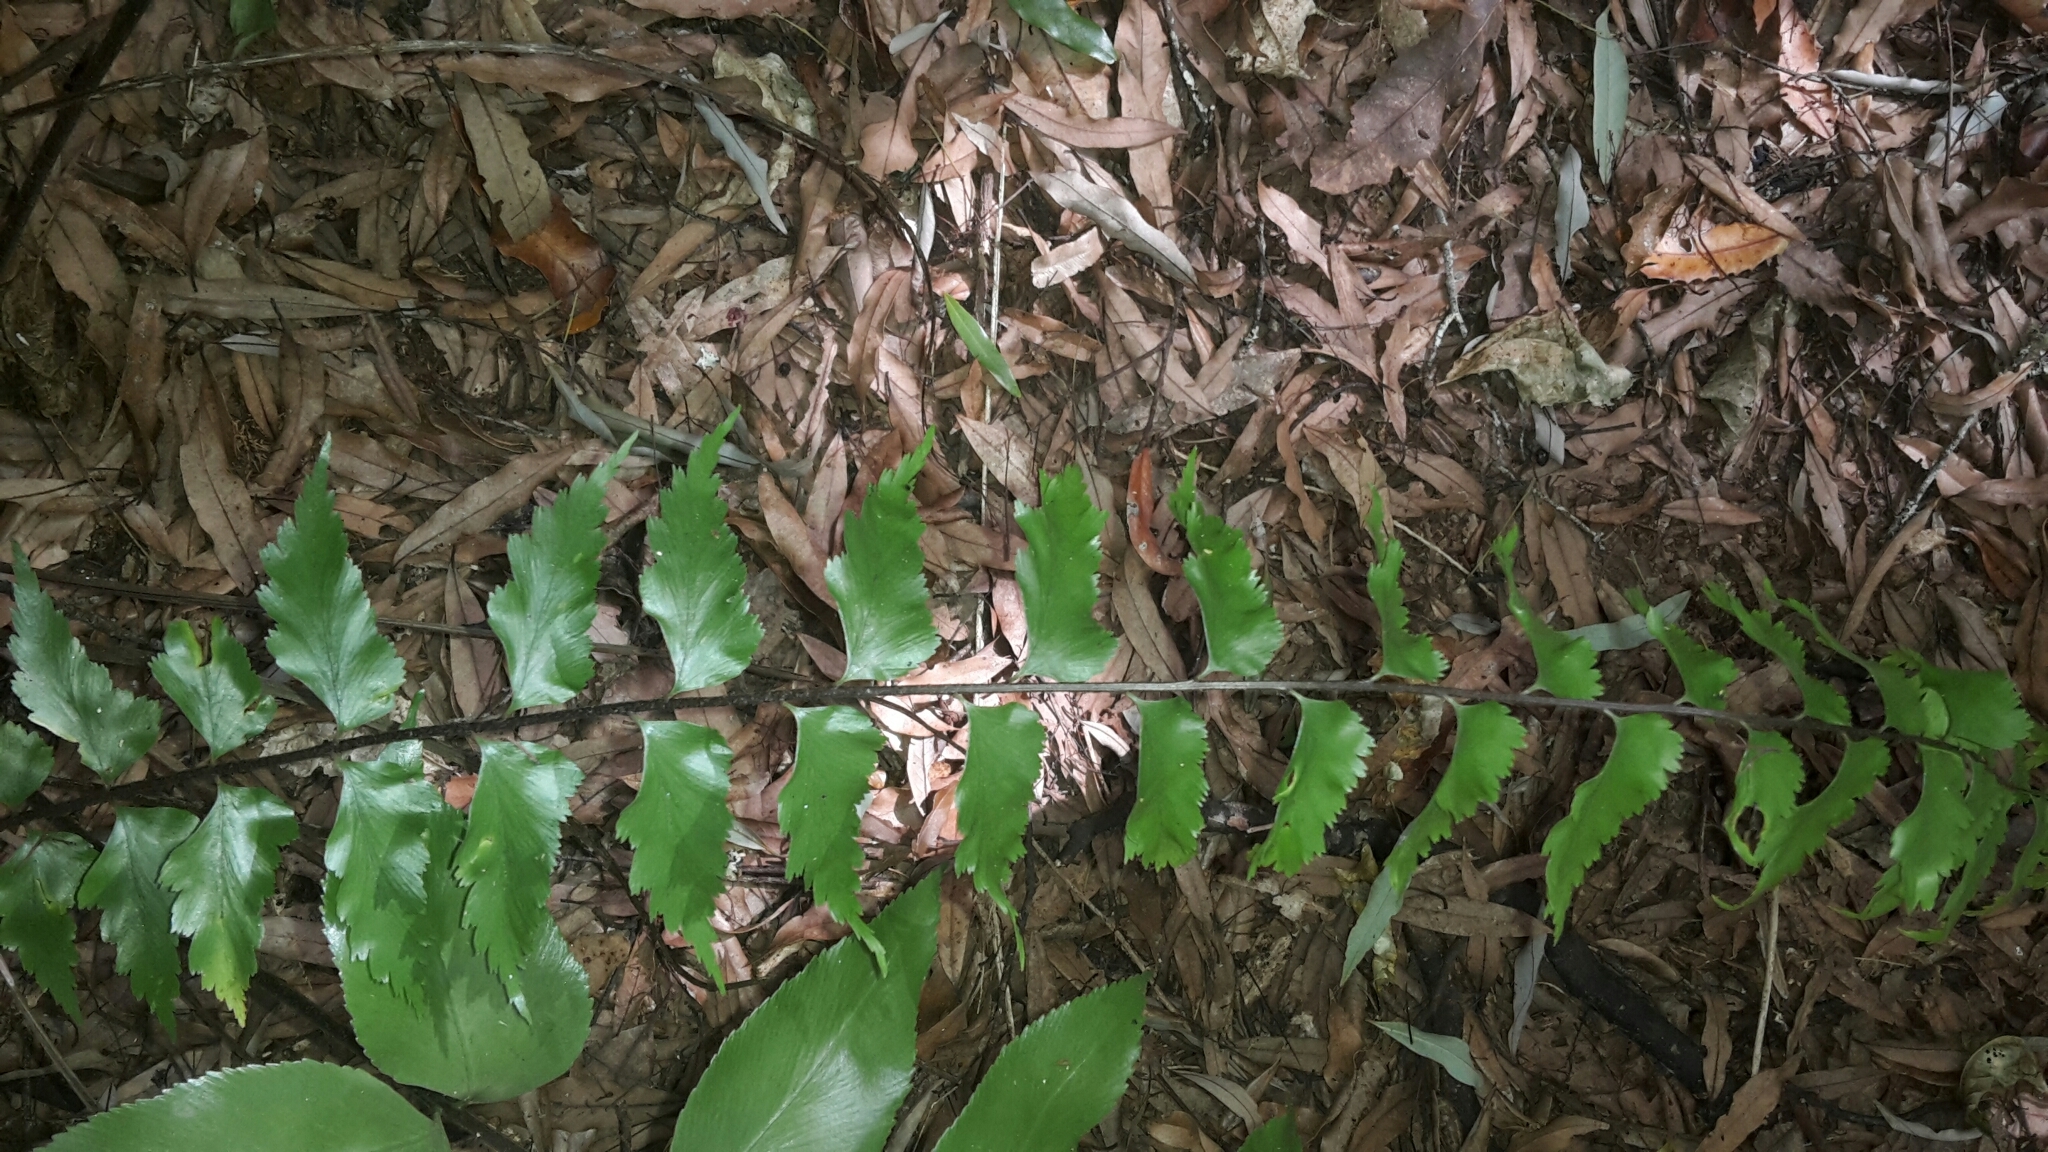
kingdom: Plantae
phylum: Tracheophyta
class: Polypodiopsida
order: Polypodiales
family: Aspleniaceae
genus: Asplenium
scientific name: Asplenium polyodon
